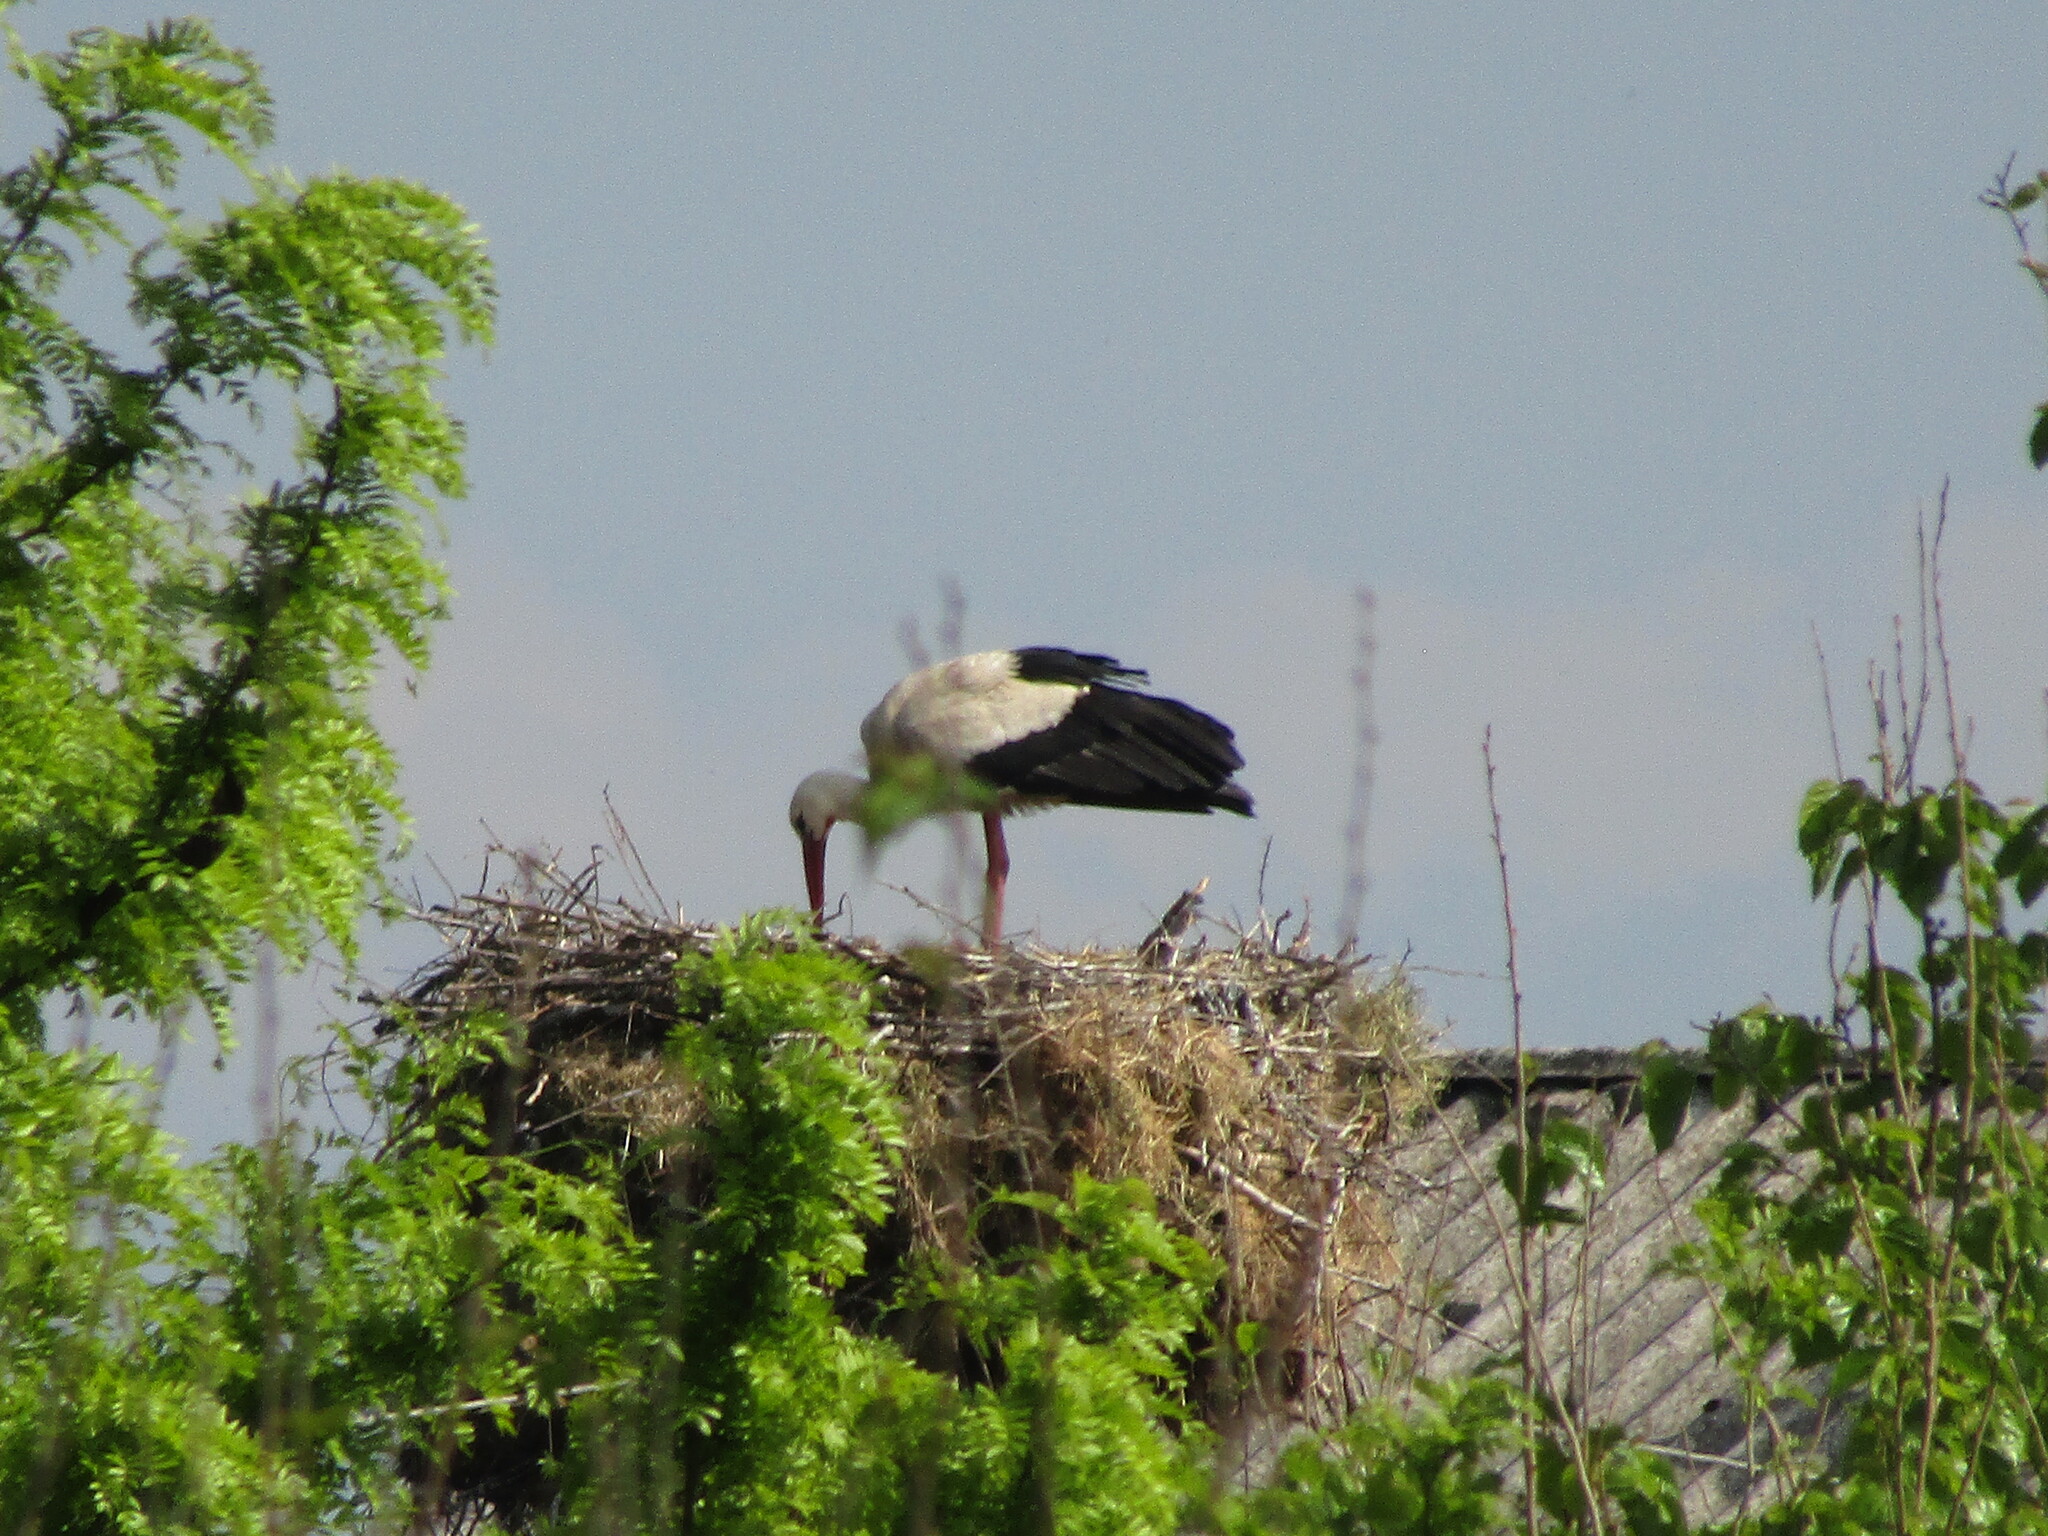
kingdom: Animalia
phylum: Chordata
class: Aves
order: Ciconiiformes
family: Ciconiidae
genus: Ciconia
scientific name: Ciconia ciconia
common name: White stork
